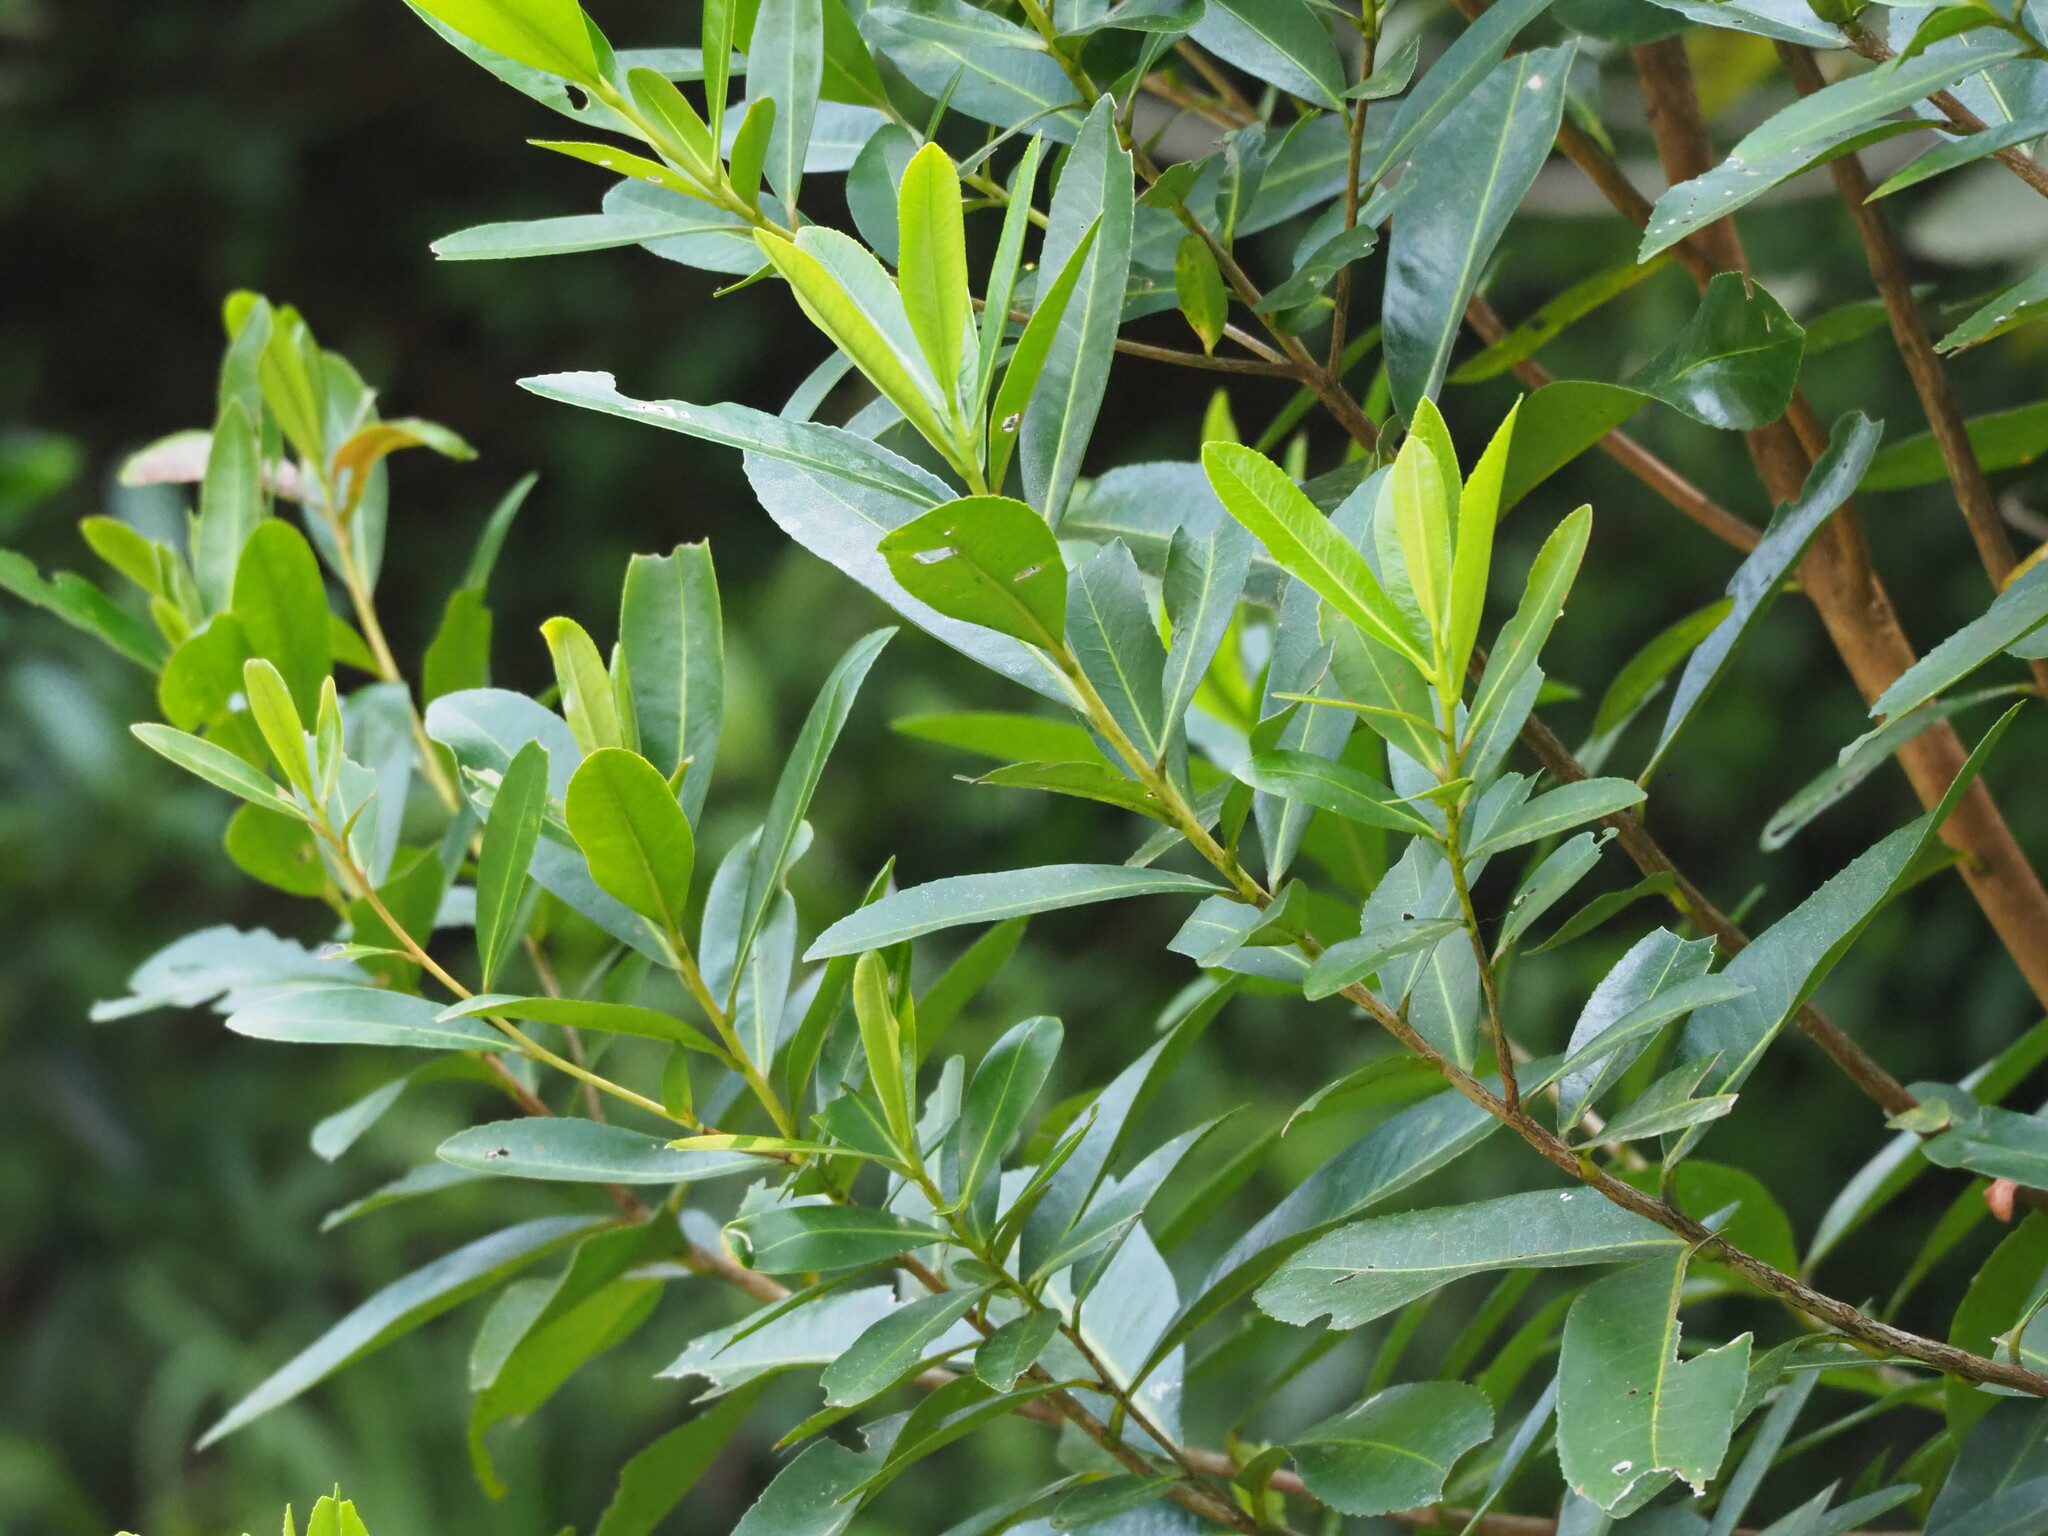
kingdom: Plantae
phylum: Tracheophyta
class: Magnoliopsida
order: Ericales
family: Theaceae
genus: Polyspora
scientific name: Polyspora axillaris
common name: Fried egg tree
